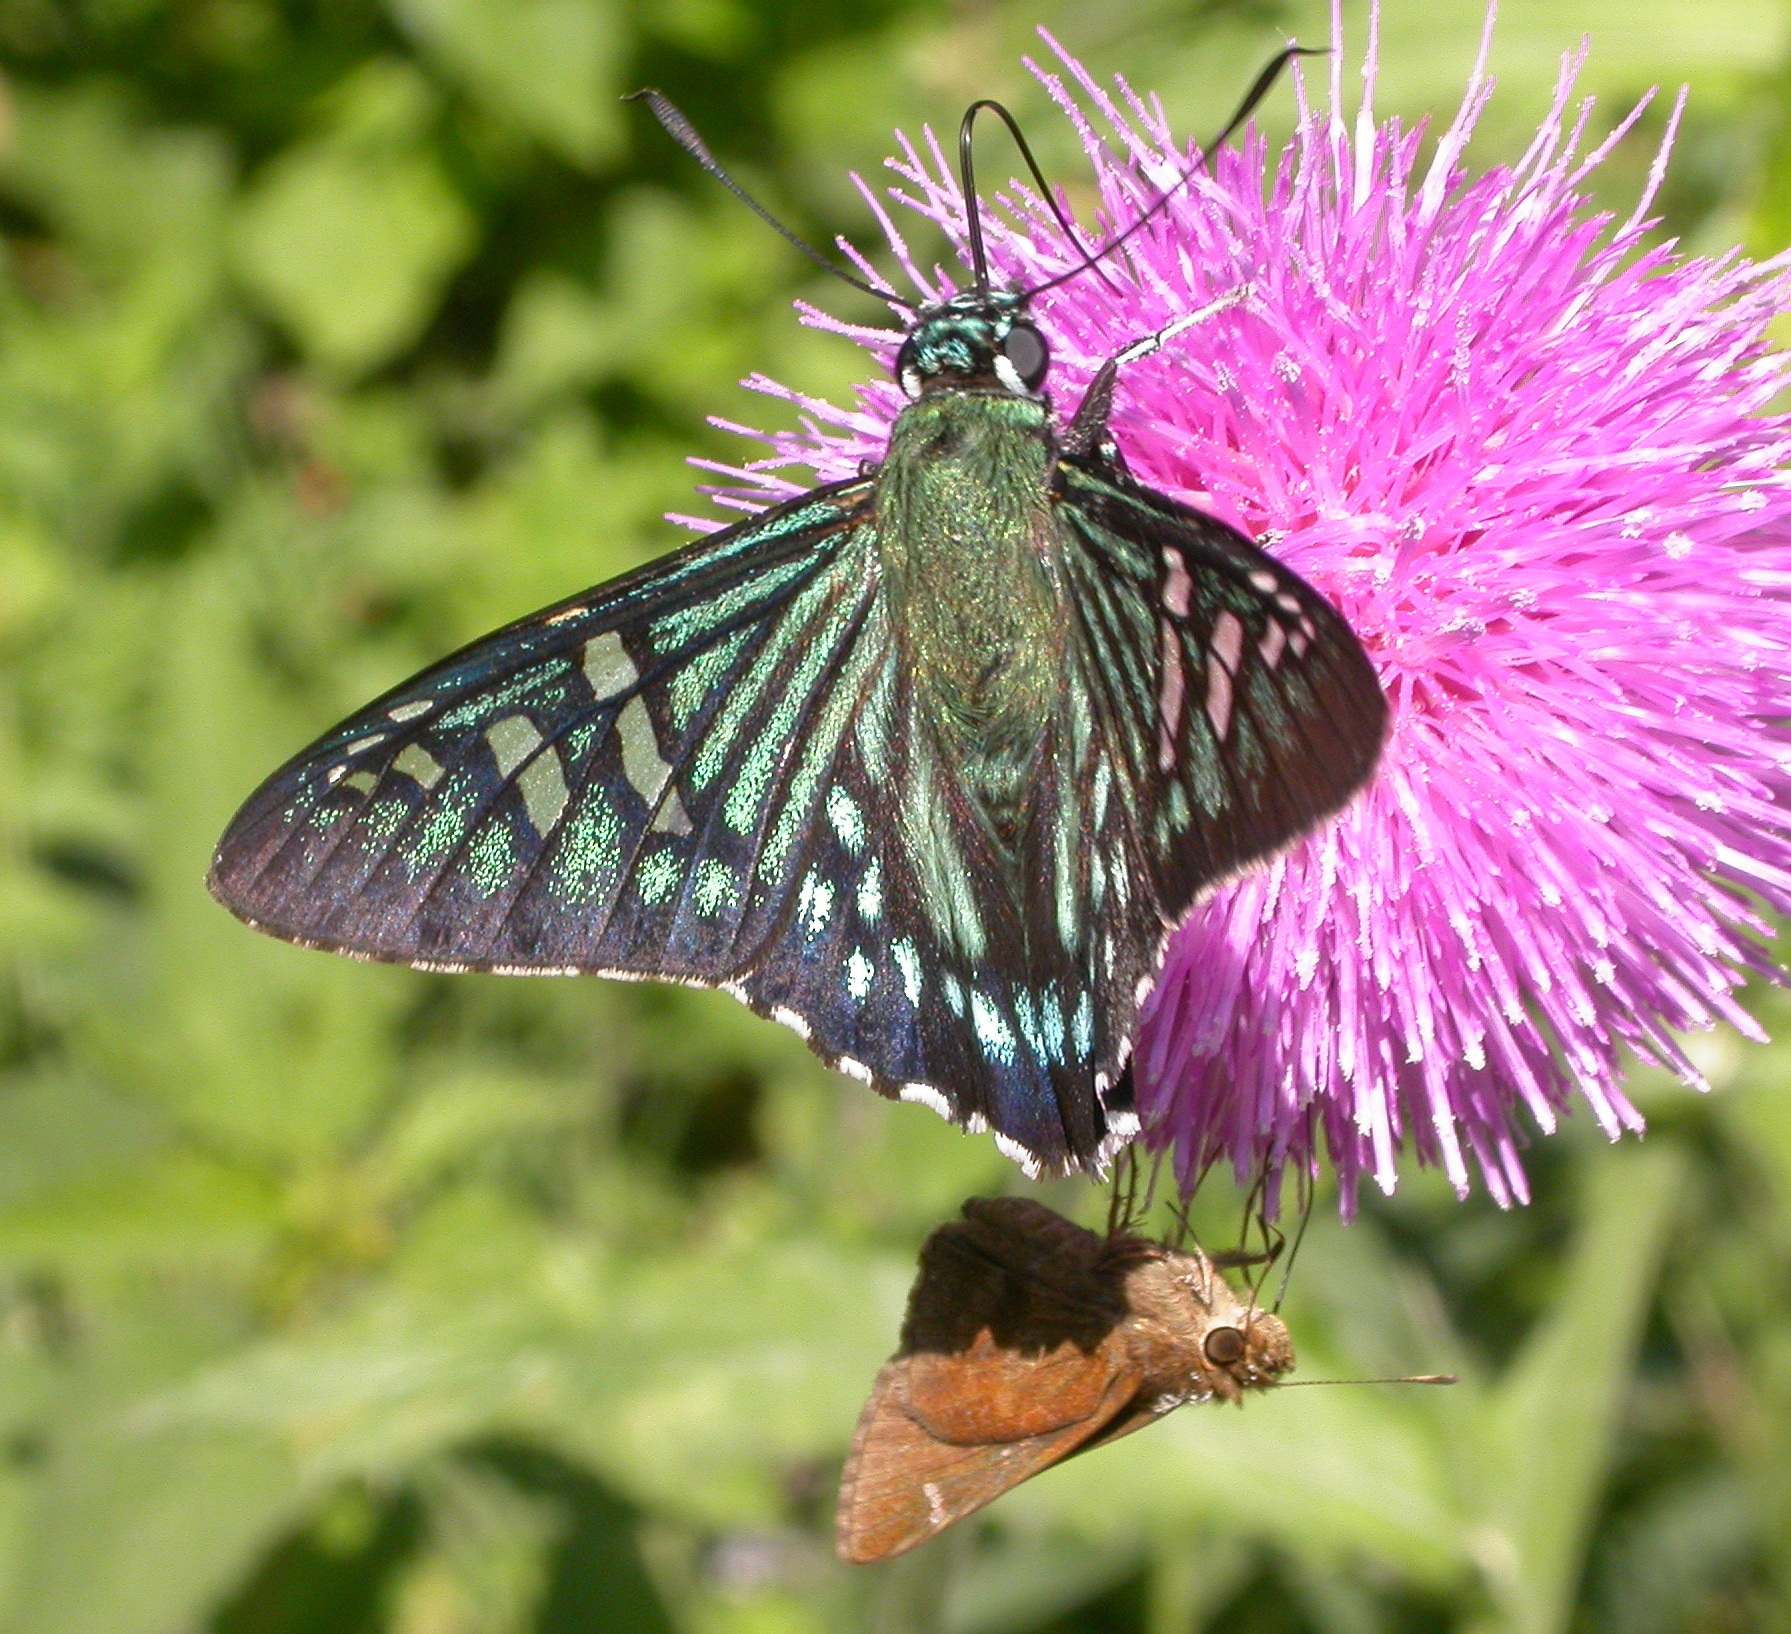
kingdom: Animalia
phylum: Arthropoda
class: Insecta
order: Lepidoptera
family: Hesperiidae
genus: Phocides
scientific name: Phocides urania
